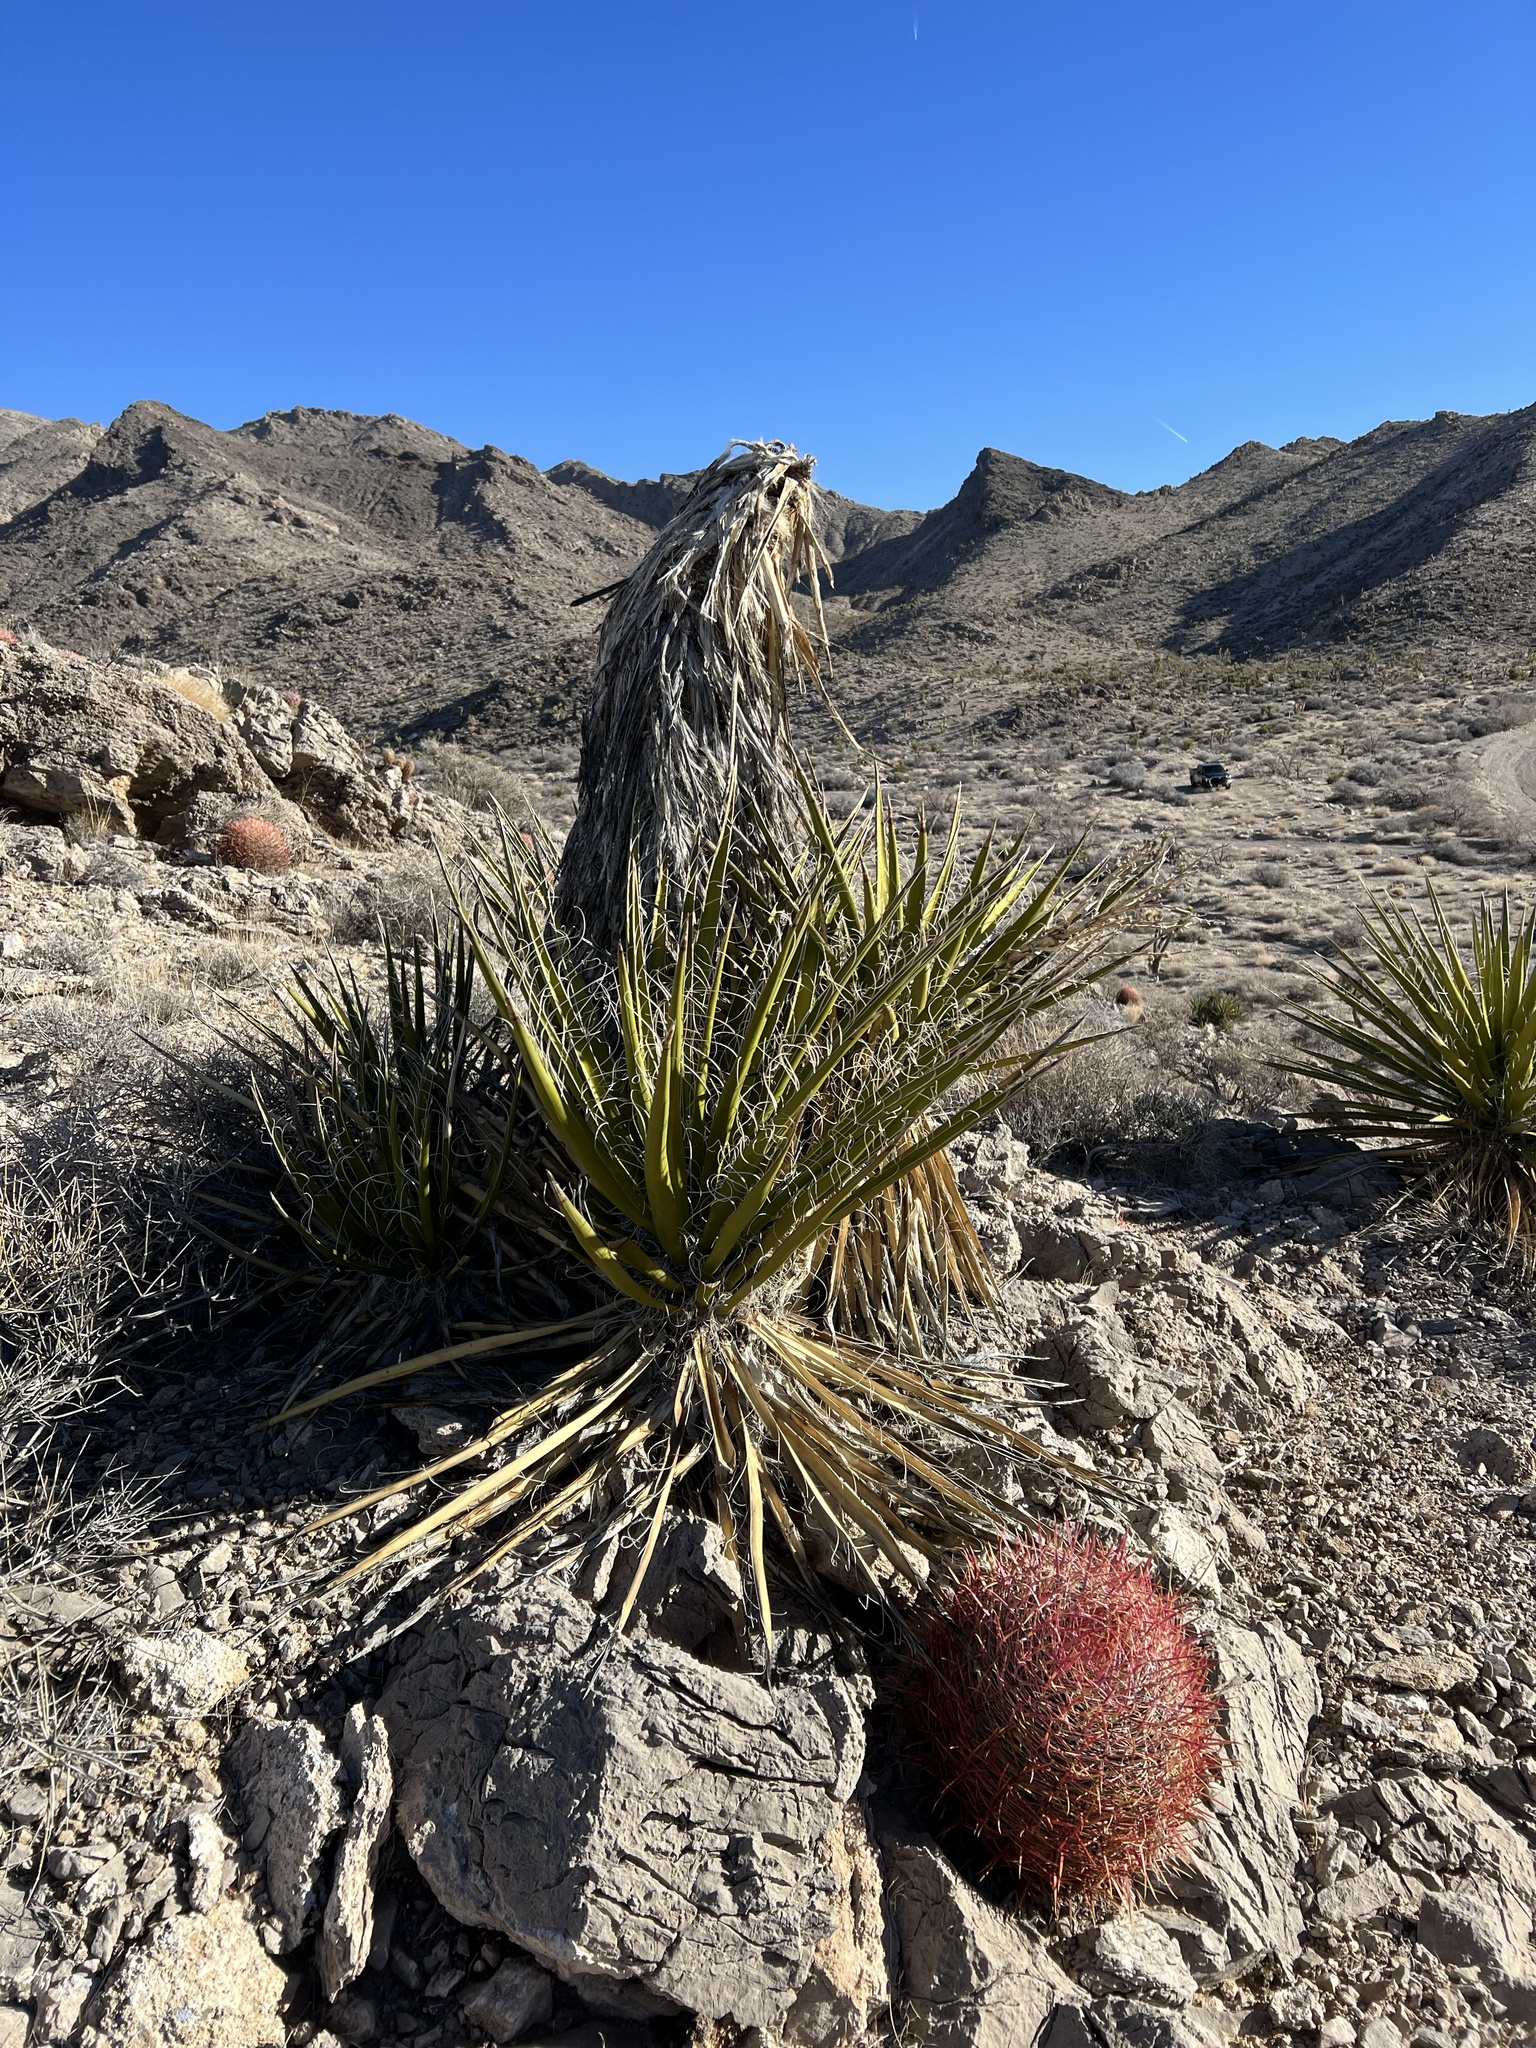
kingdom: Plantae
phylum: Tracheophyta
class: Liliopsida
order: Asparagales
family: Asparagaceae
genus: Yucca
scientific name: Yucca schidigera
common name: Mojave yucca
